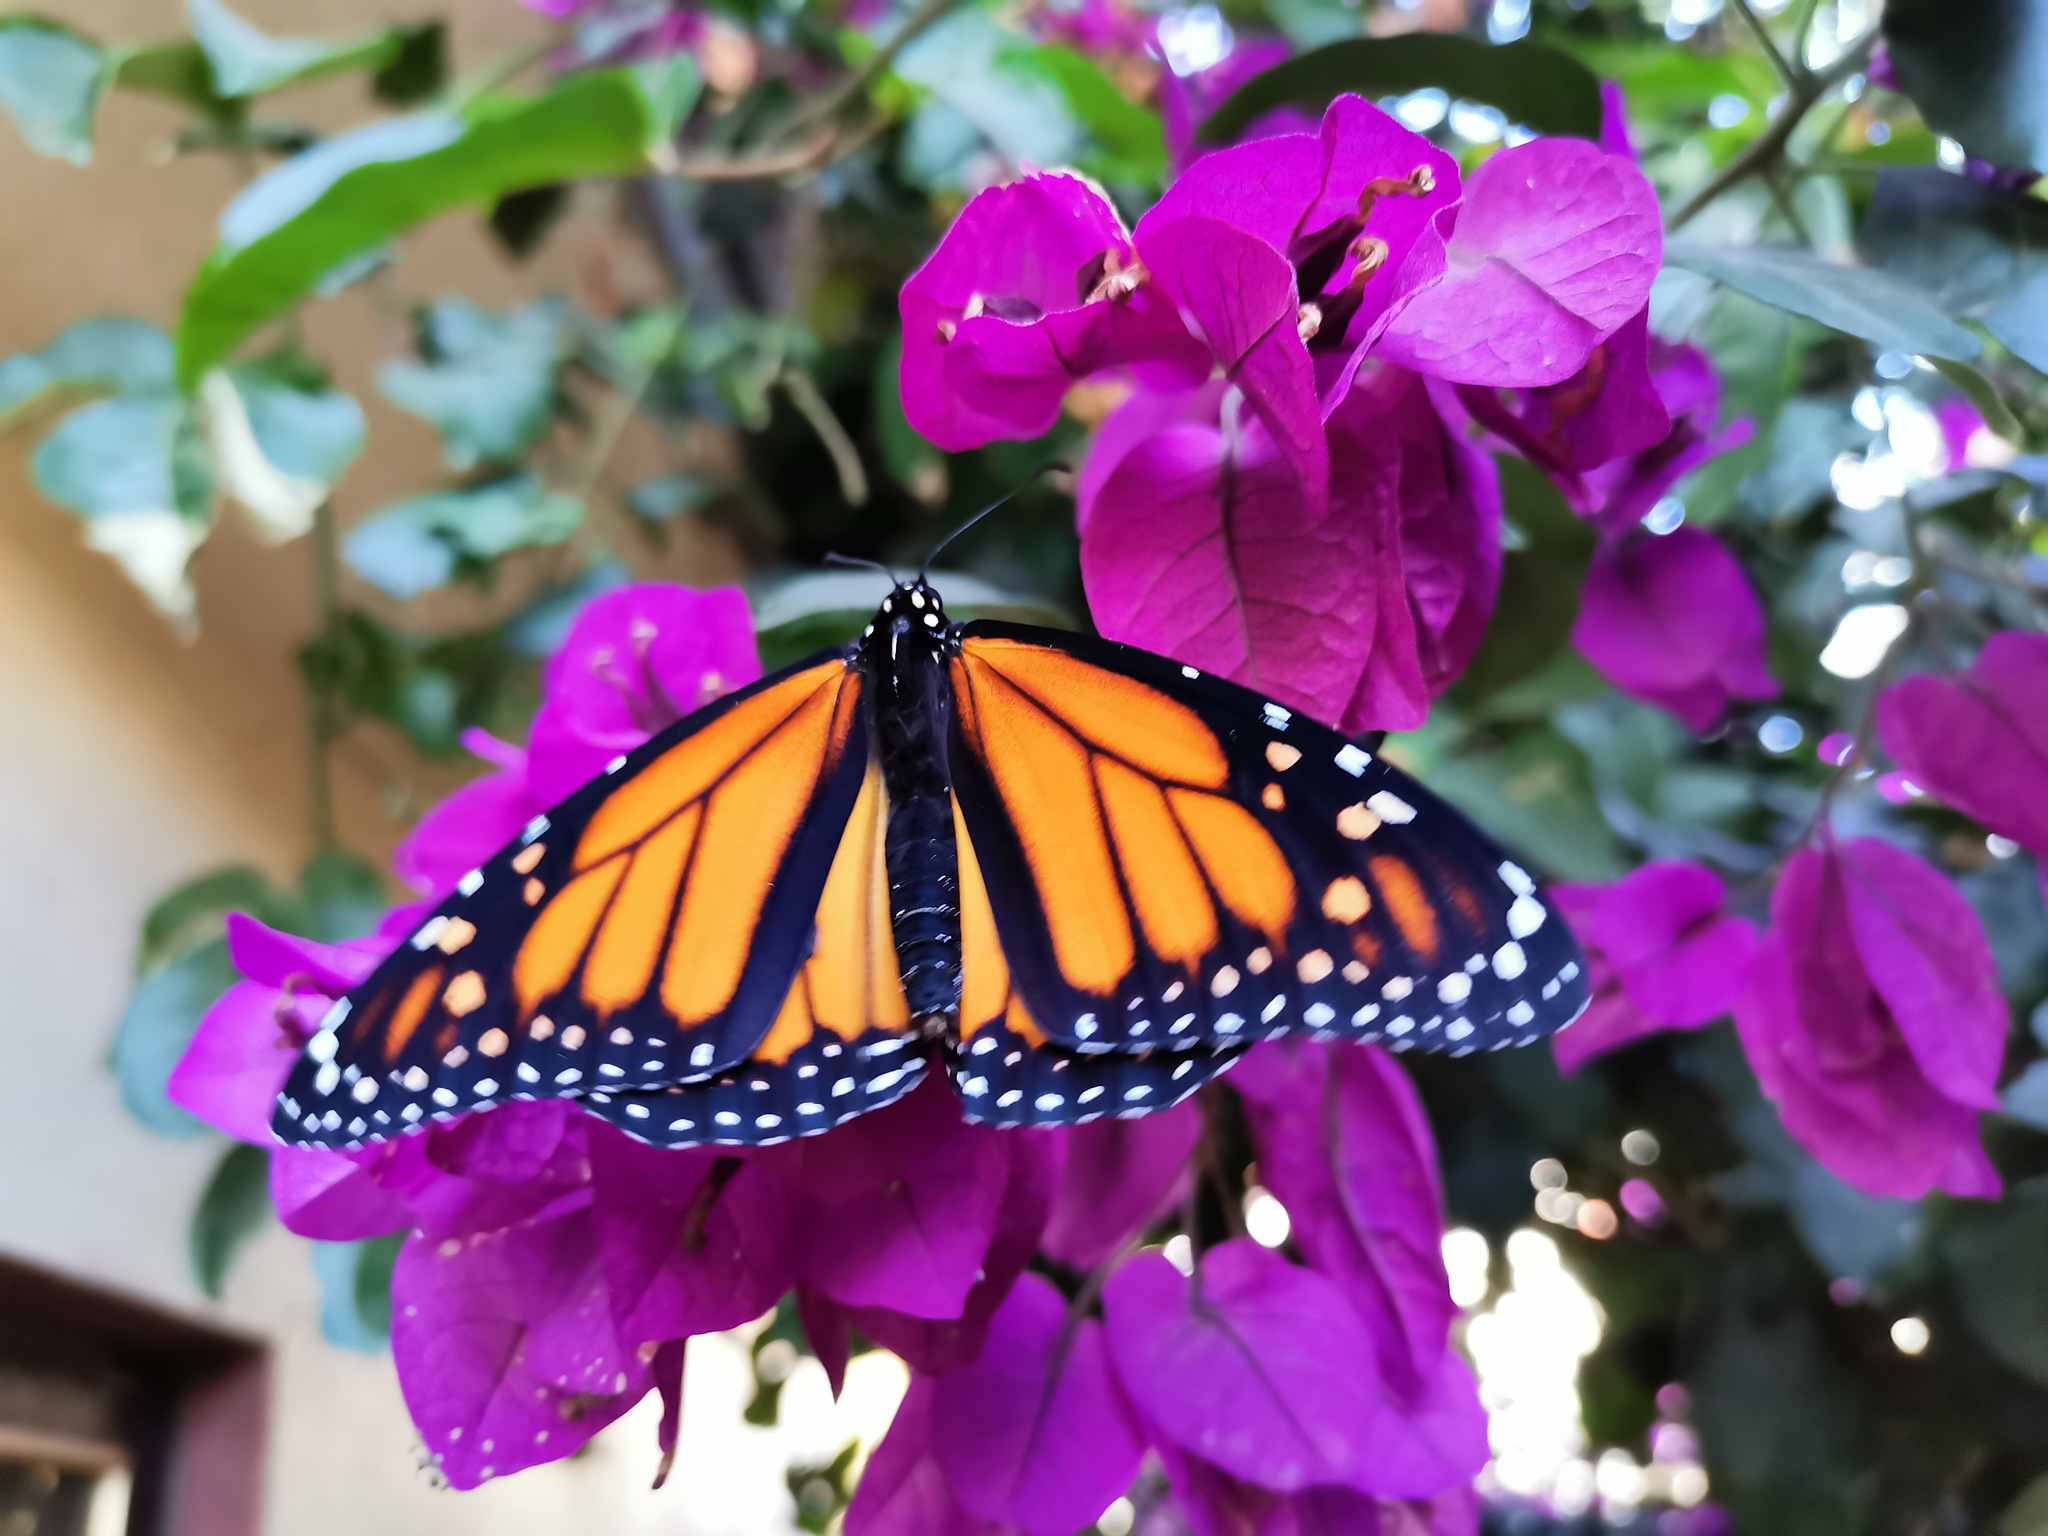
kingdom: Animalia
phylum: Arthropoda
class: Insecta
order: Lepidoptera
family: Nymphalidae
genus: Danaus
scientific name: Danaus plexippus
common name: Monarch
